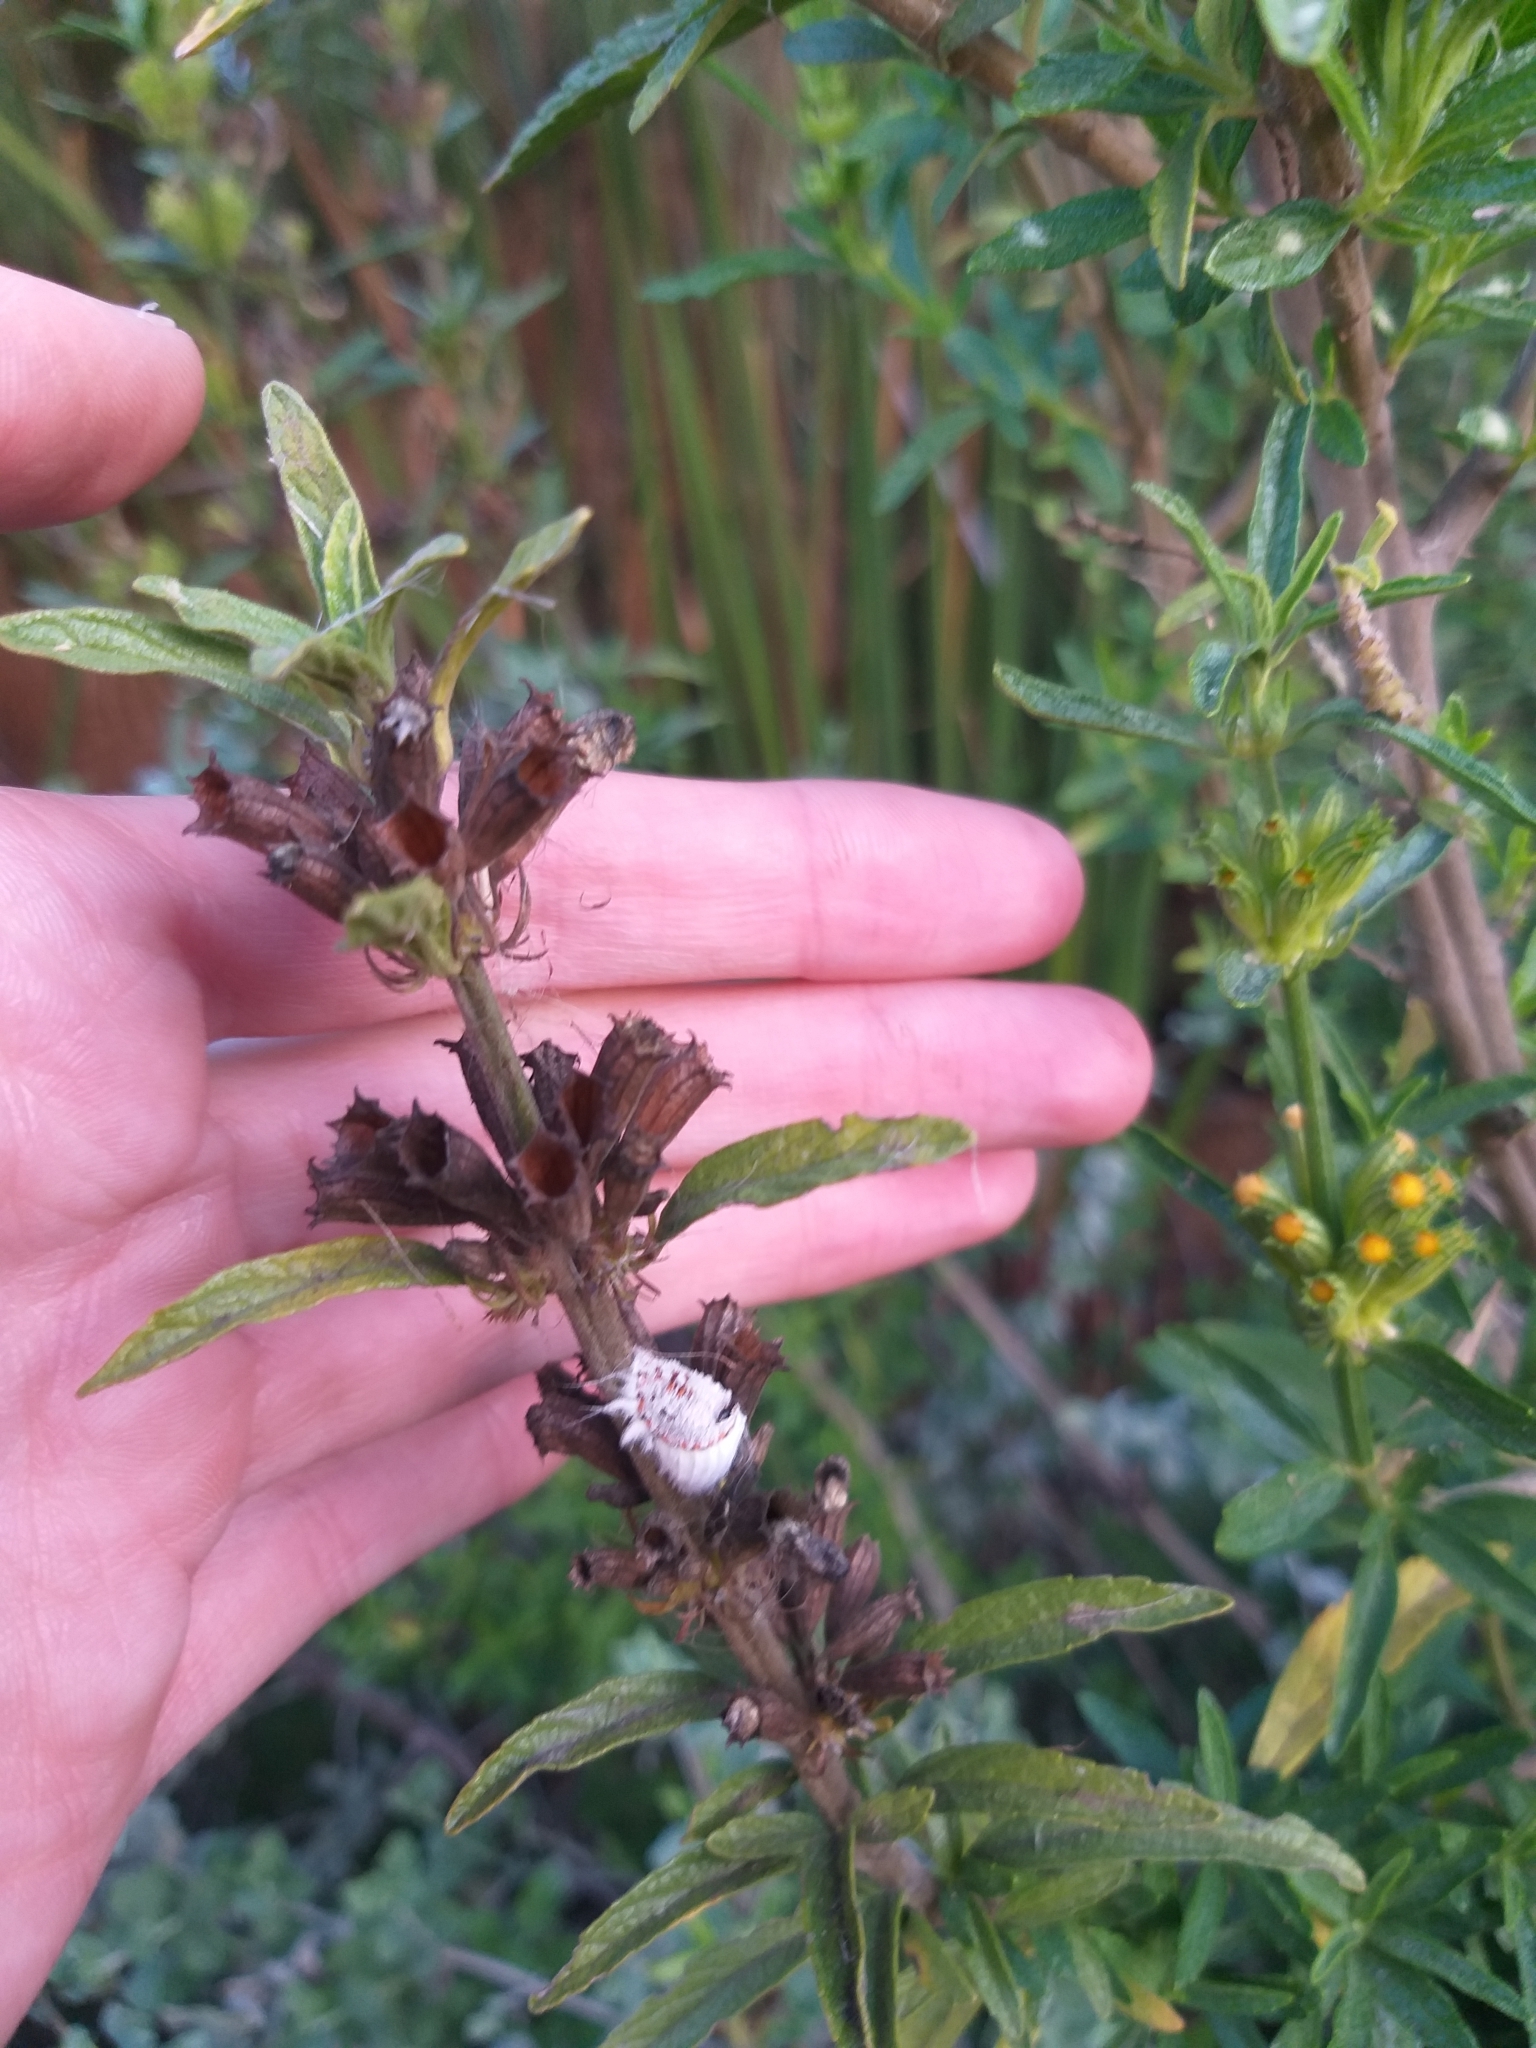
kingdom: Animalia
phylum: Arthropoda
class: Insecta
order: Hemiptera
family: Margarodidae
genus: Icerya
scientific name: Icerya purchasi
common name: Cottony cushion scale
